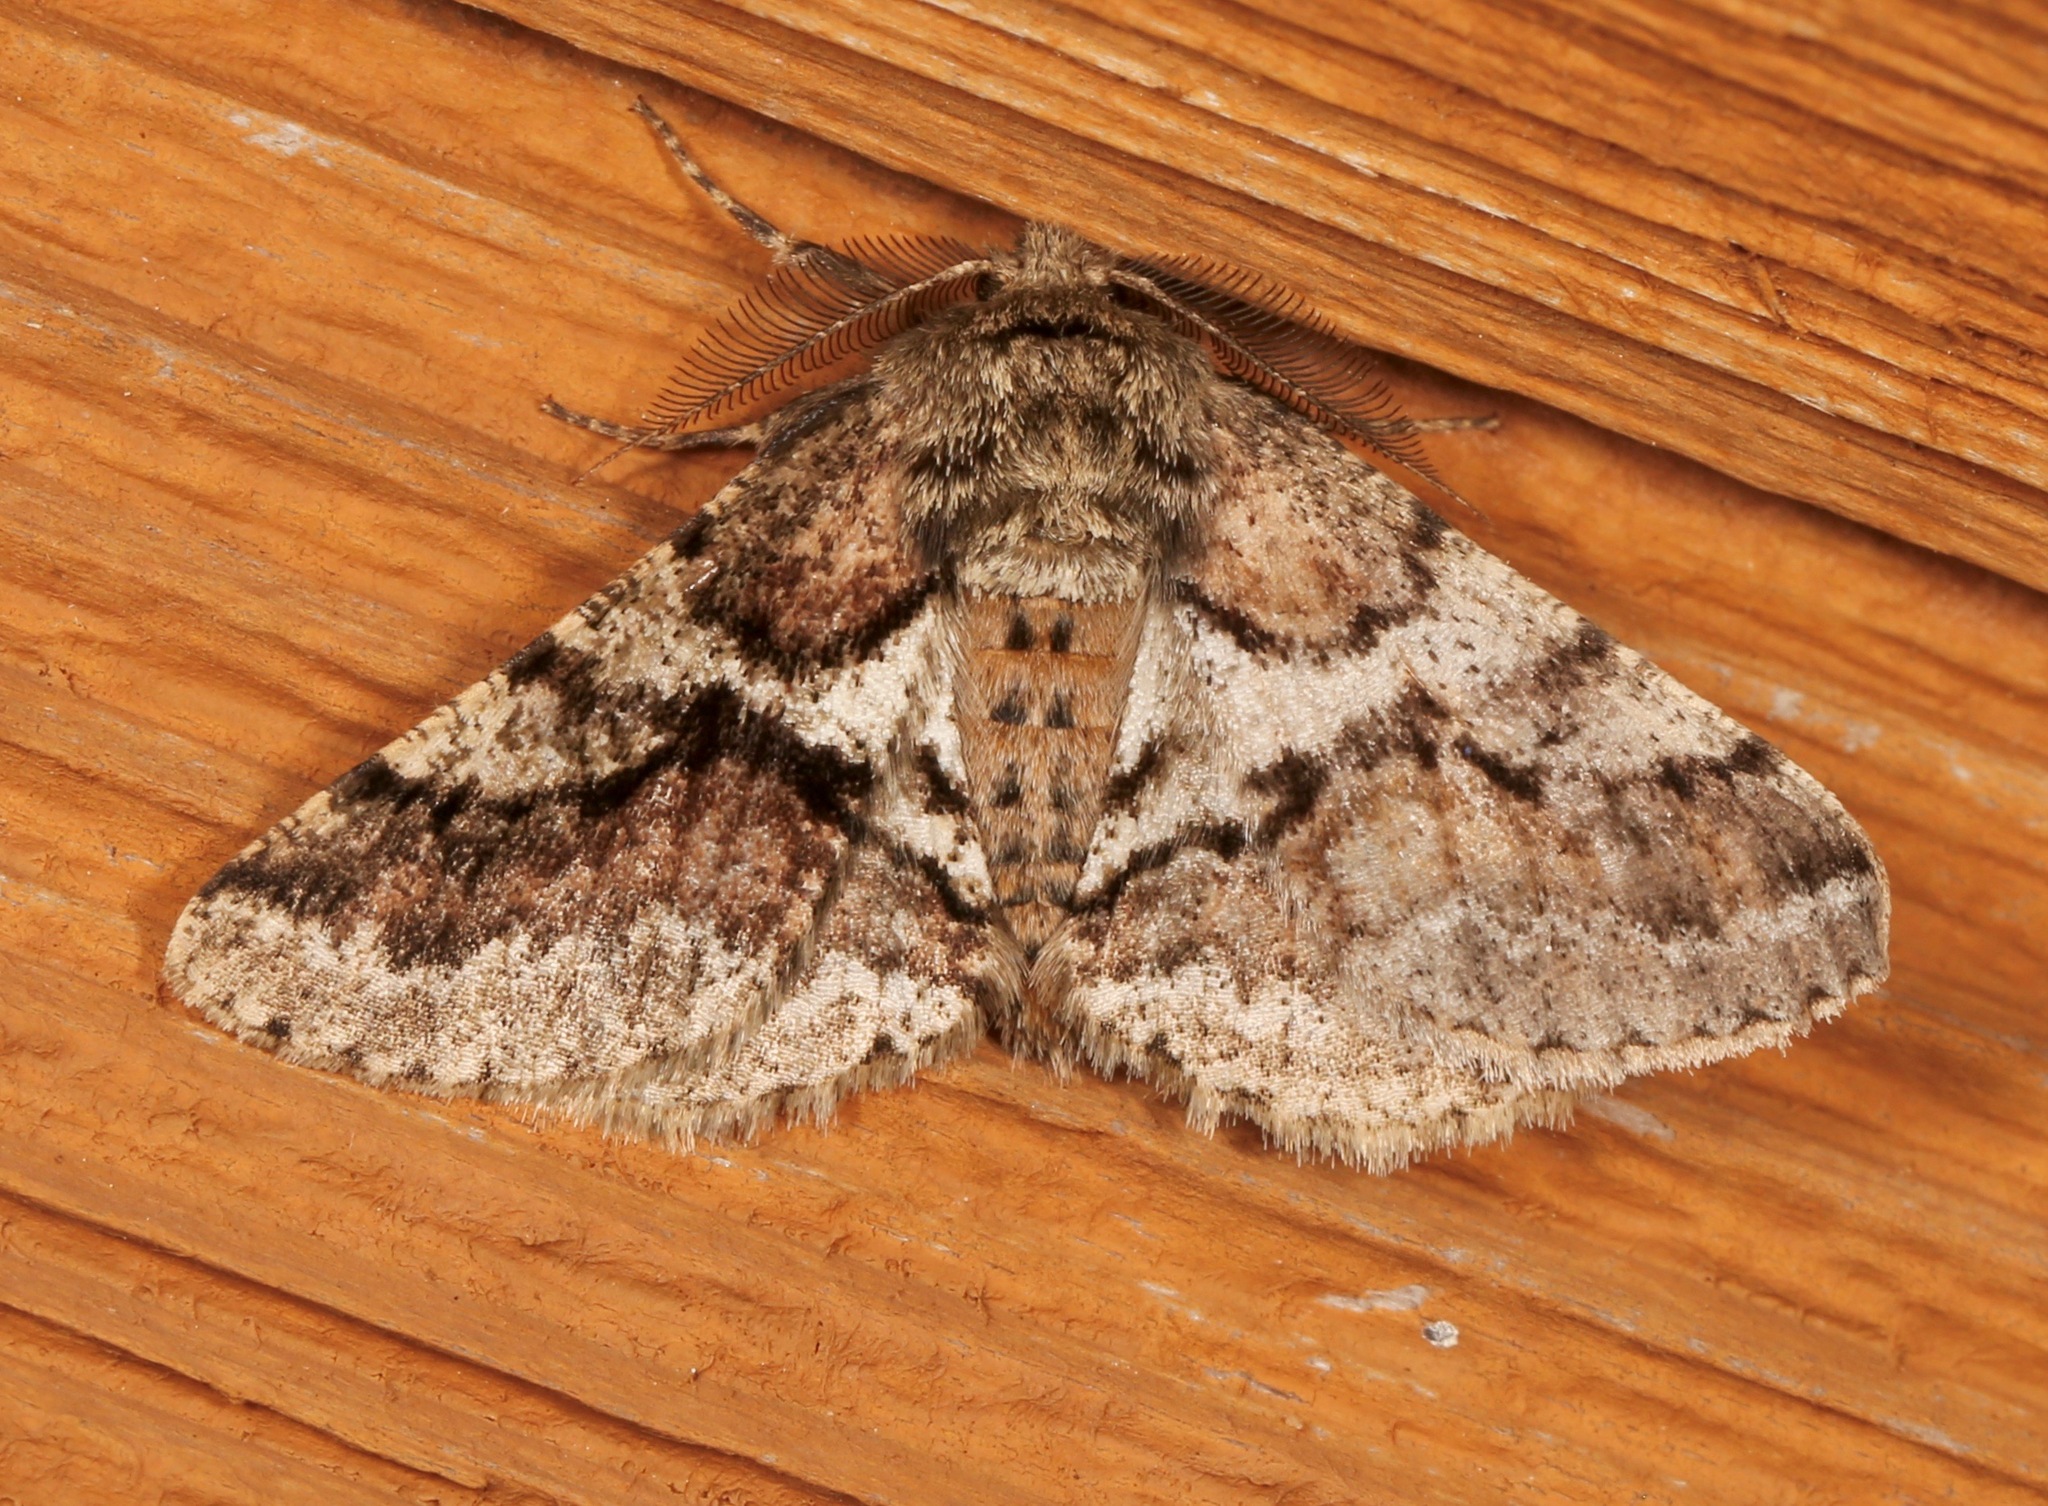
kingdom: Animalia
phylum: Arthropoda
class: Insecta
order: Lepidoptera
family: Geometridae
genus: Lycia
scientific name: Lycia ypsilon
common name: Wooly gray
